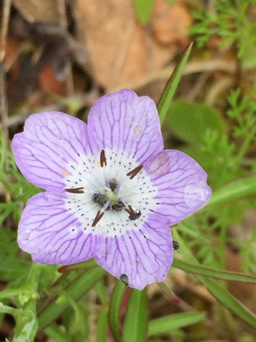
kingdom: Plantae
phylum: Tracheophyta
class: Magnoliopsida
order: Boraginales
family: Hydrophyllaceae
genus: Nemophila
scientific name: Nemophila menziesii
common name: Baby's-blue-eyes
